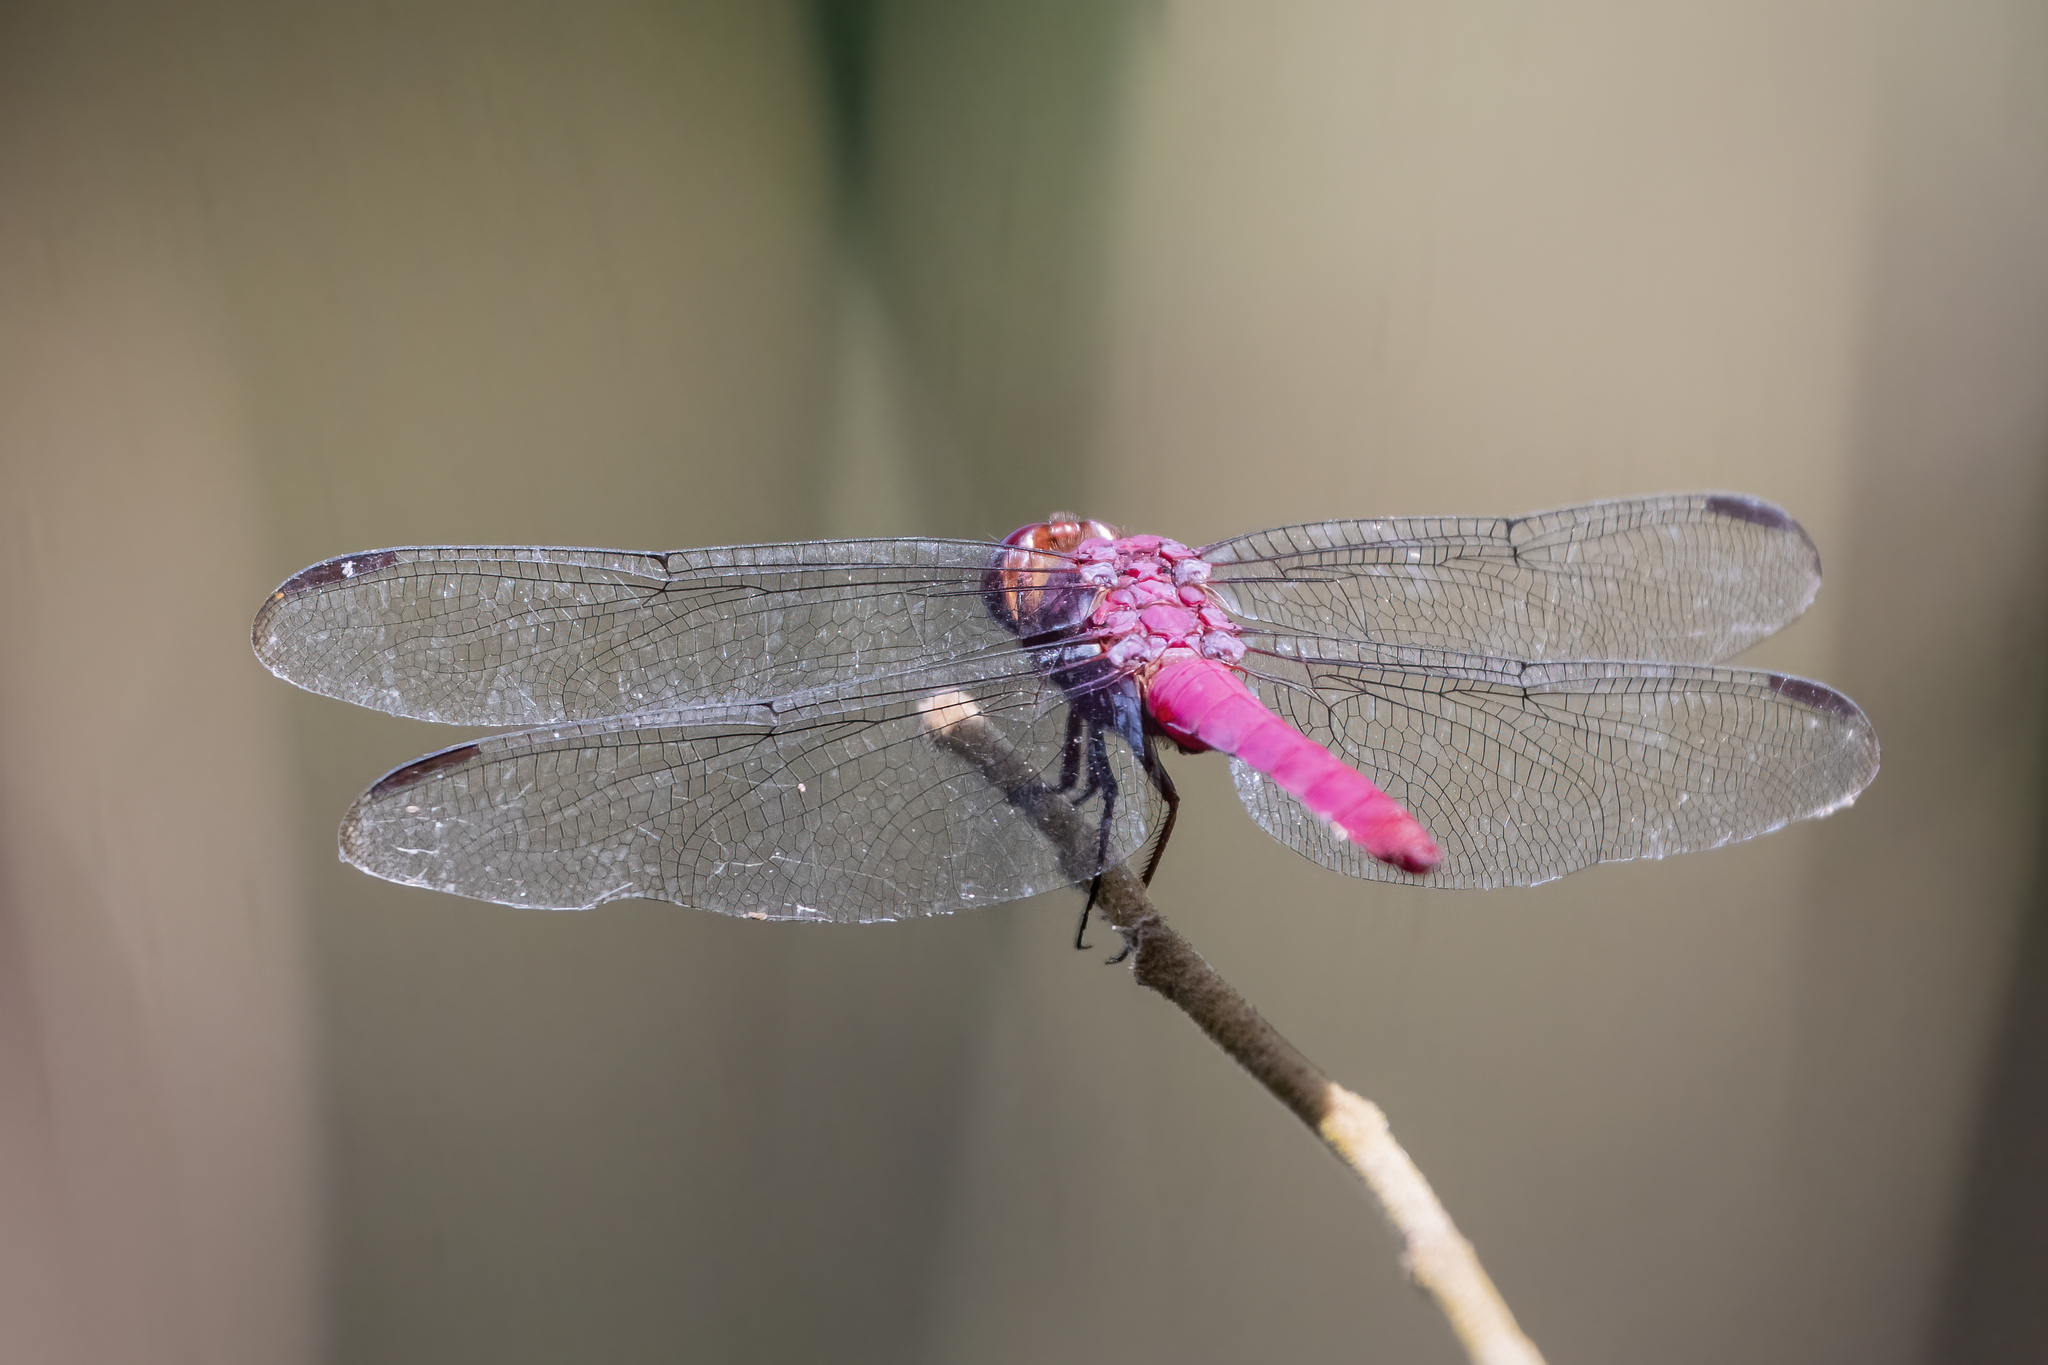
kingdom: Animalia
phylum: Arthropoda
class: Insecta
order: Odonata
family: Libellulidae
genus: Orthemis
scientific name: Orthemis discolor
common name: Carmine skimmer
